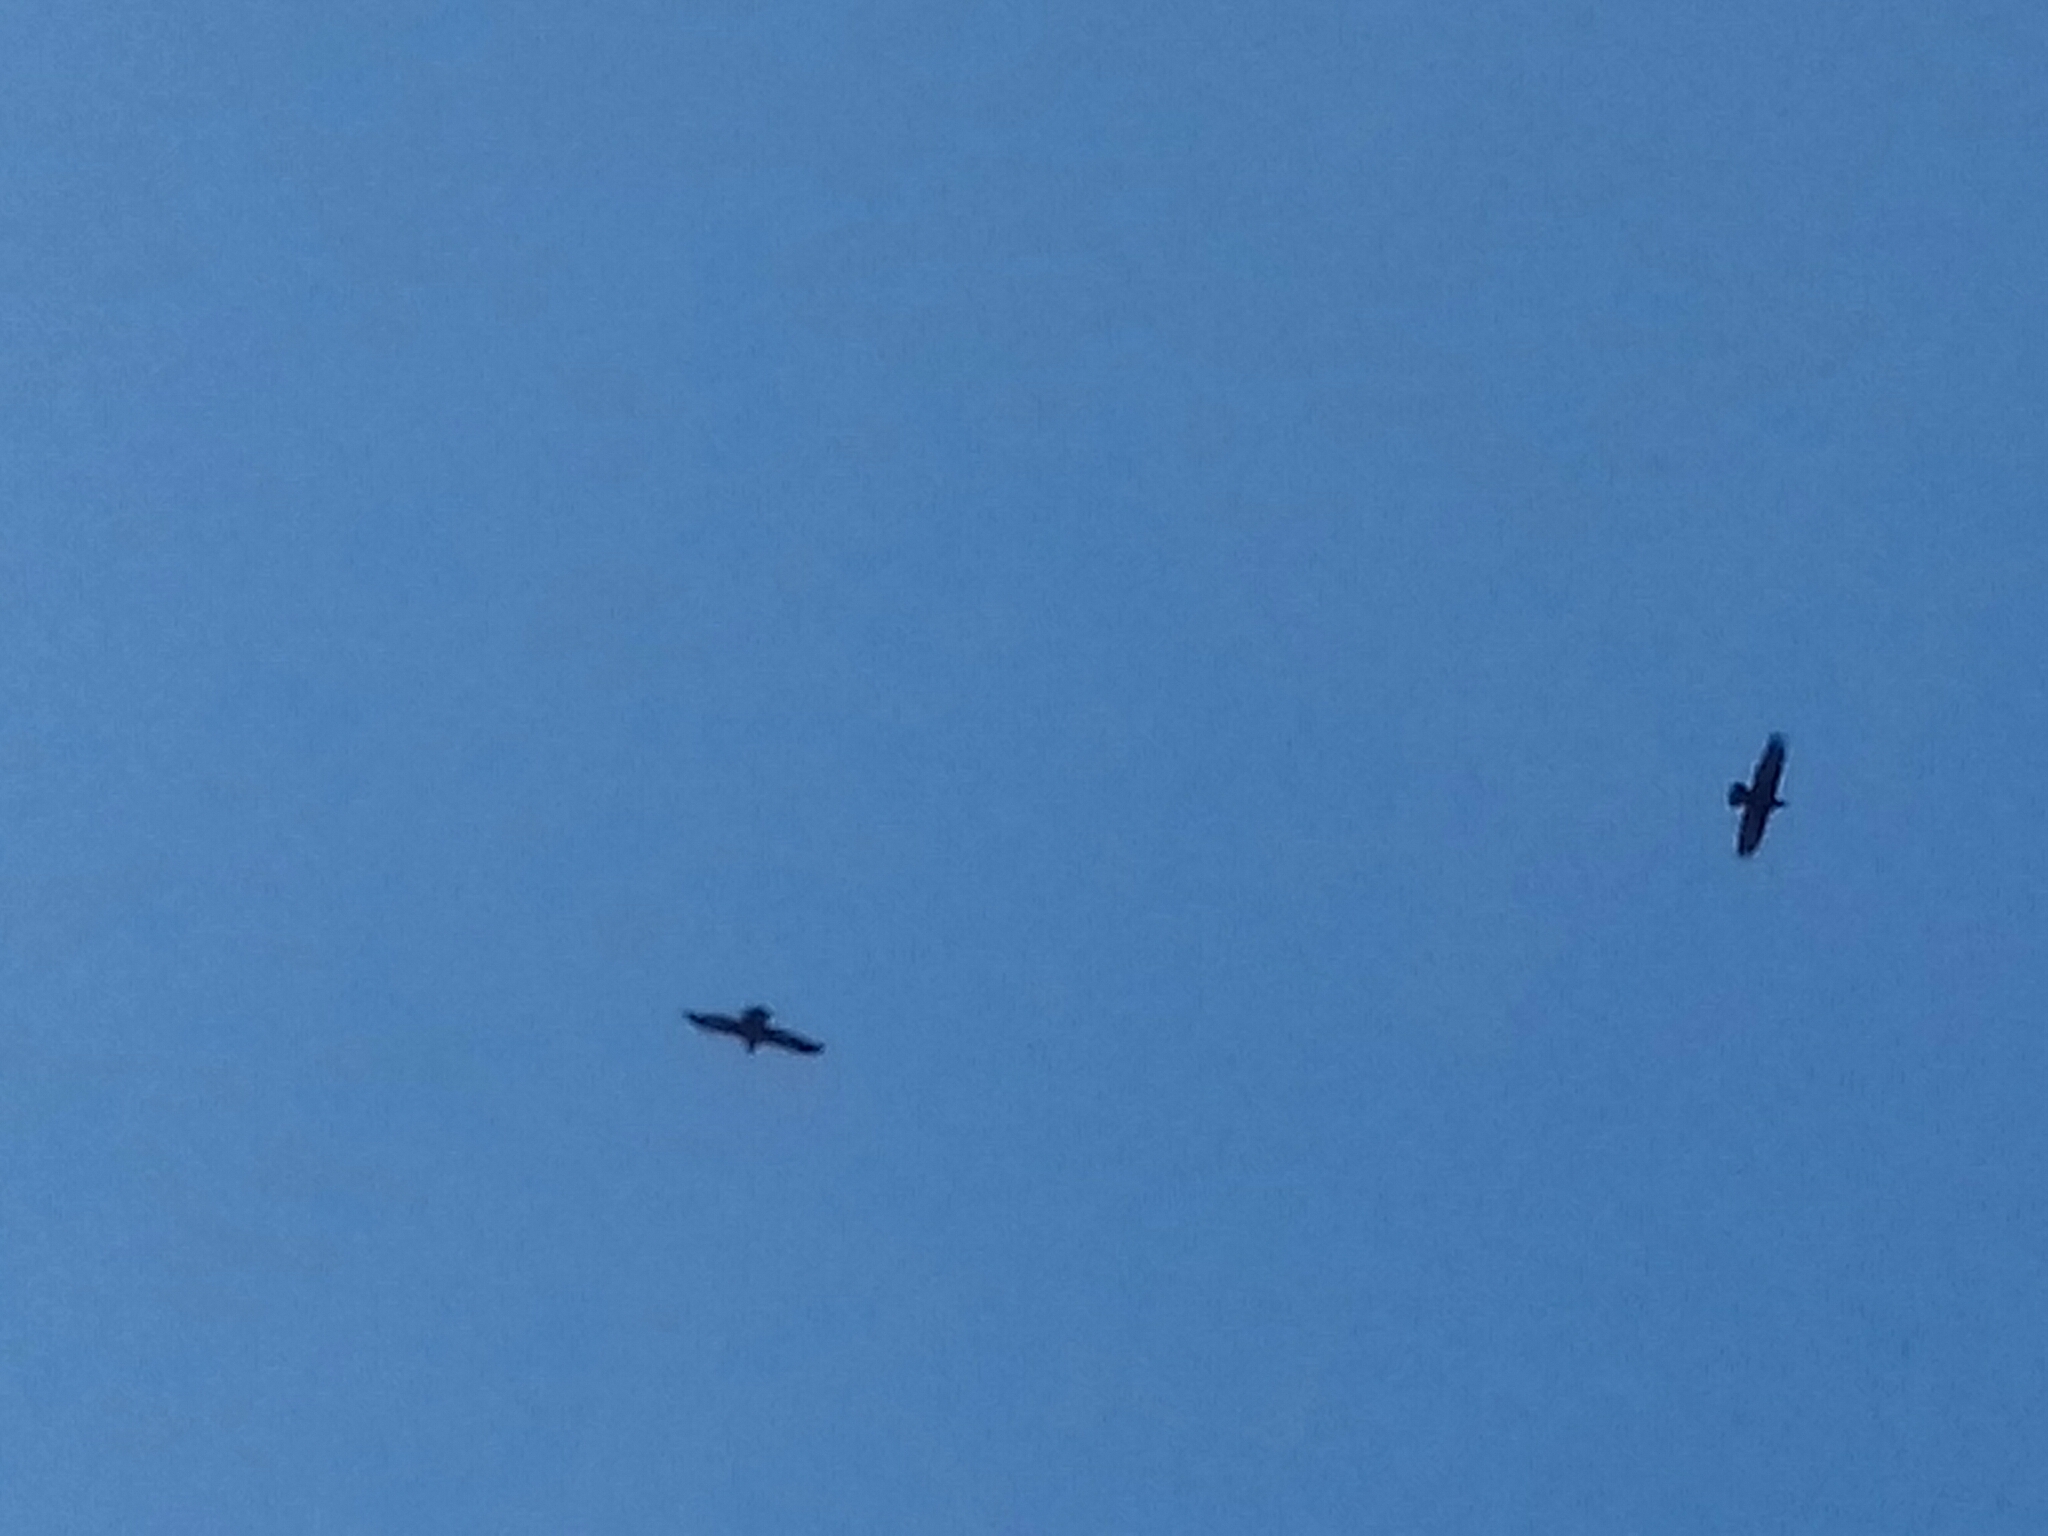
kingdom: Animalia
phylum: Chordata
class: Aves
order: Passeriformes
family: Corvidae
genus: Corvus
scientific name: Corvus corax
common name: Common raven
